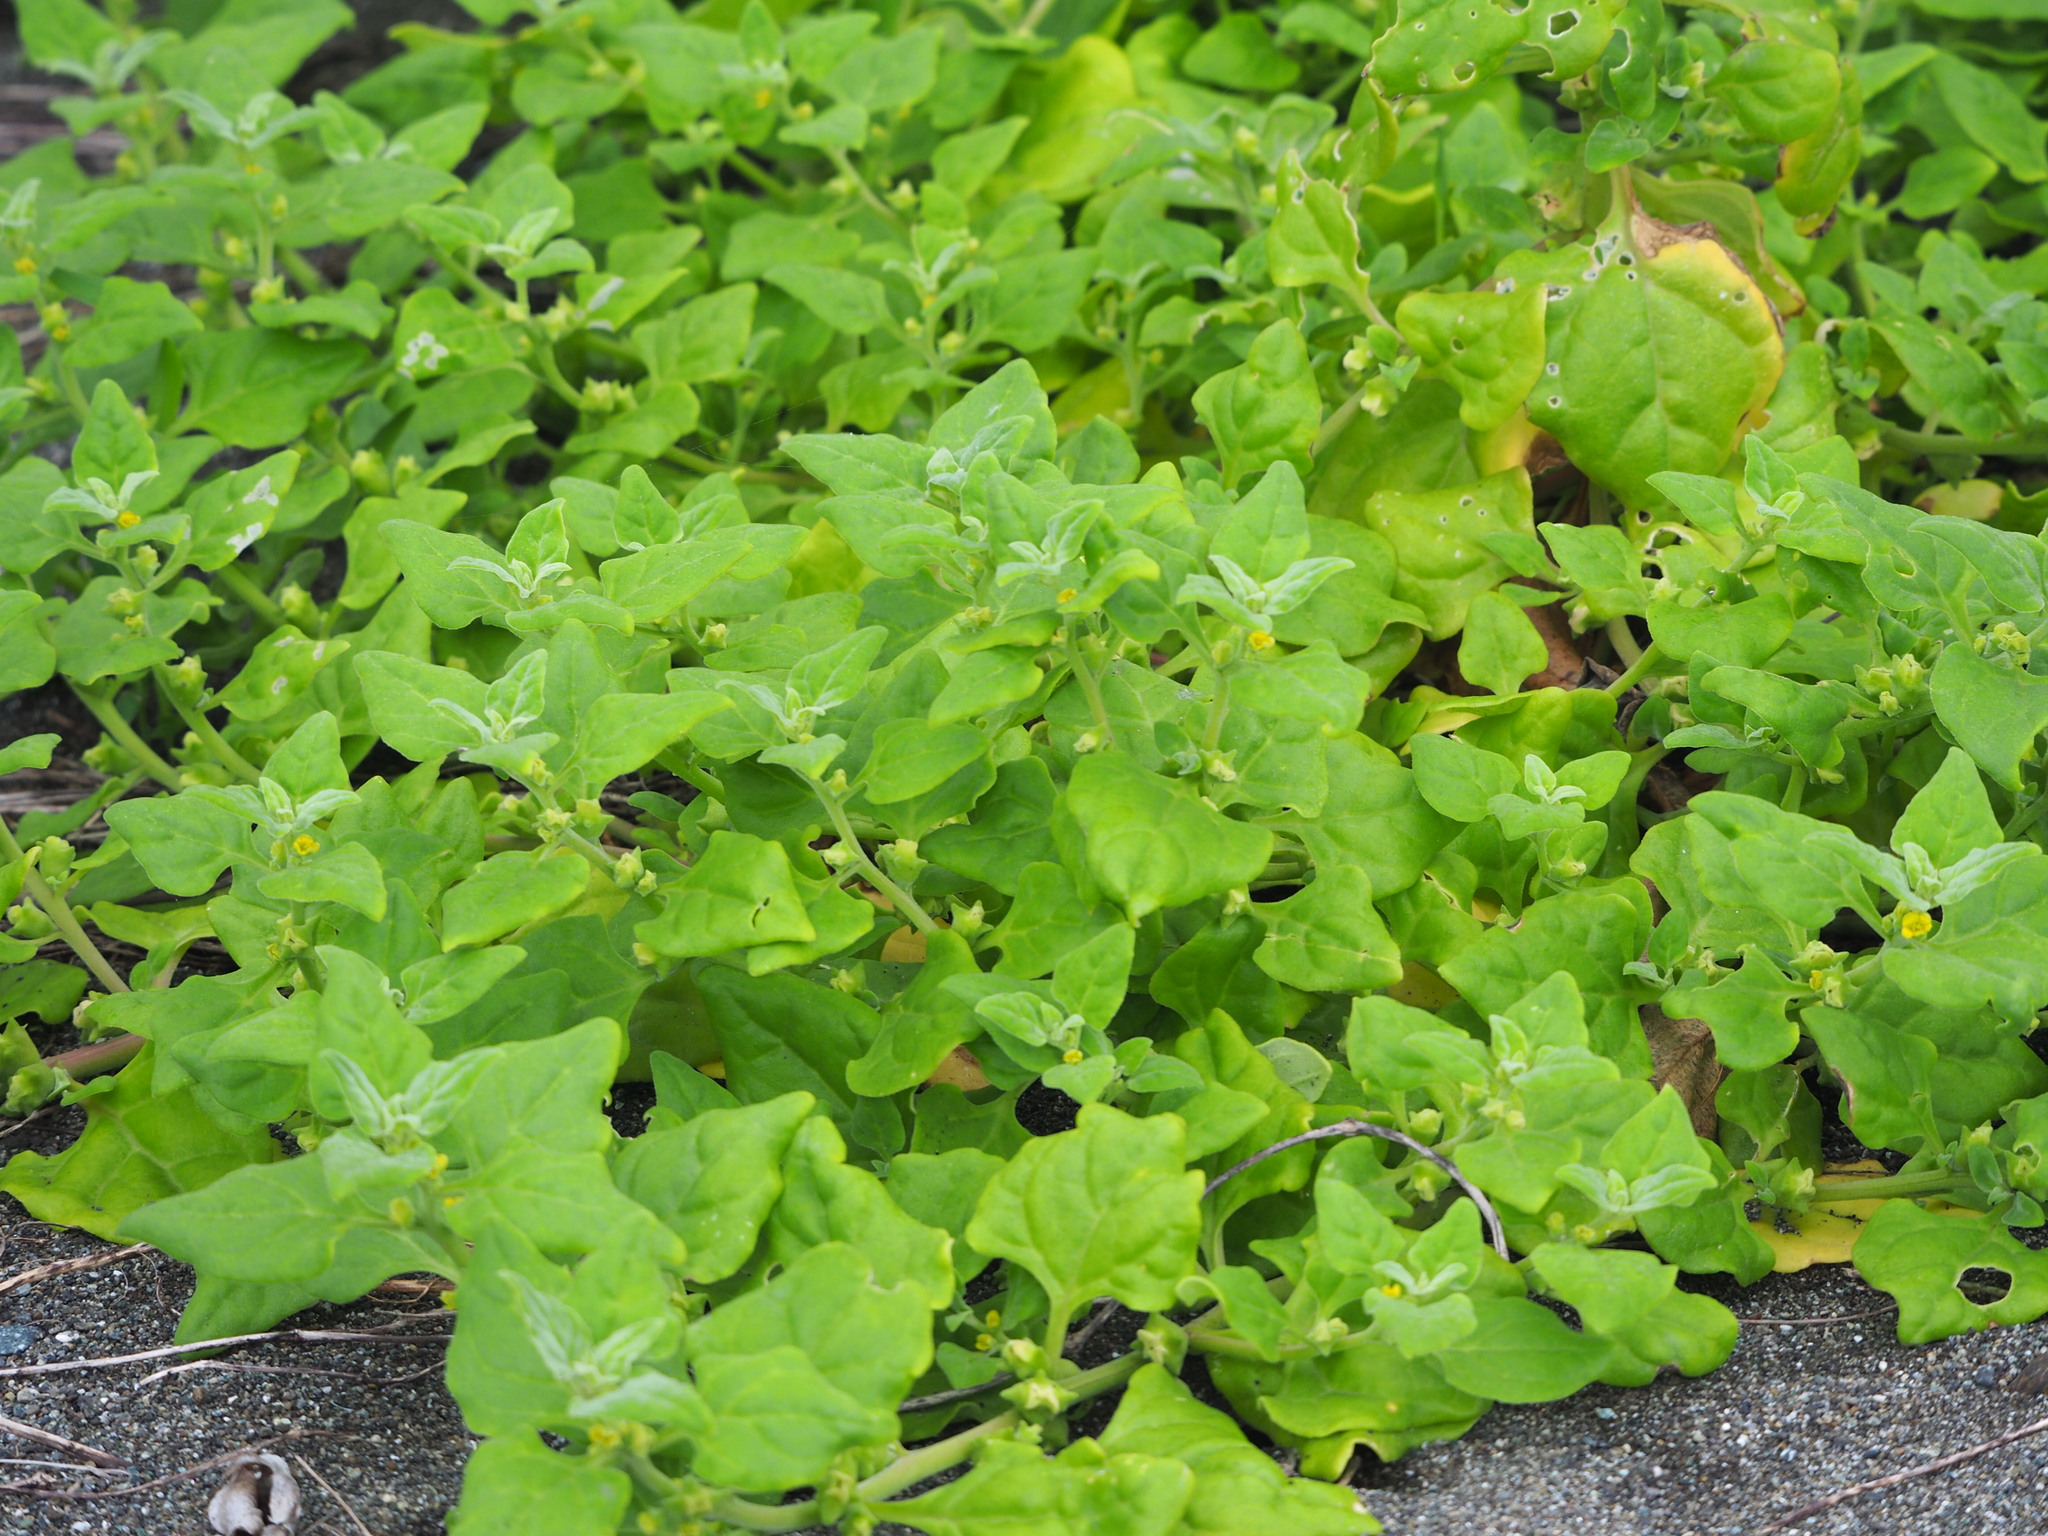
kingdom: Plantae
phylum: Tracheophyta
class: Magnoliopsida
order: Caryophyllales
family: Aizoaceae
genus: Tetragonia
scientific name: Tetragonia tetragonoides
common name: New zealand-spinach
